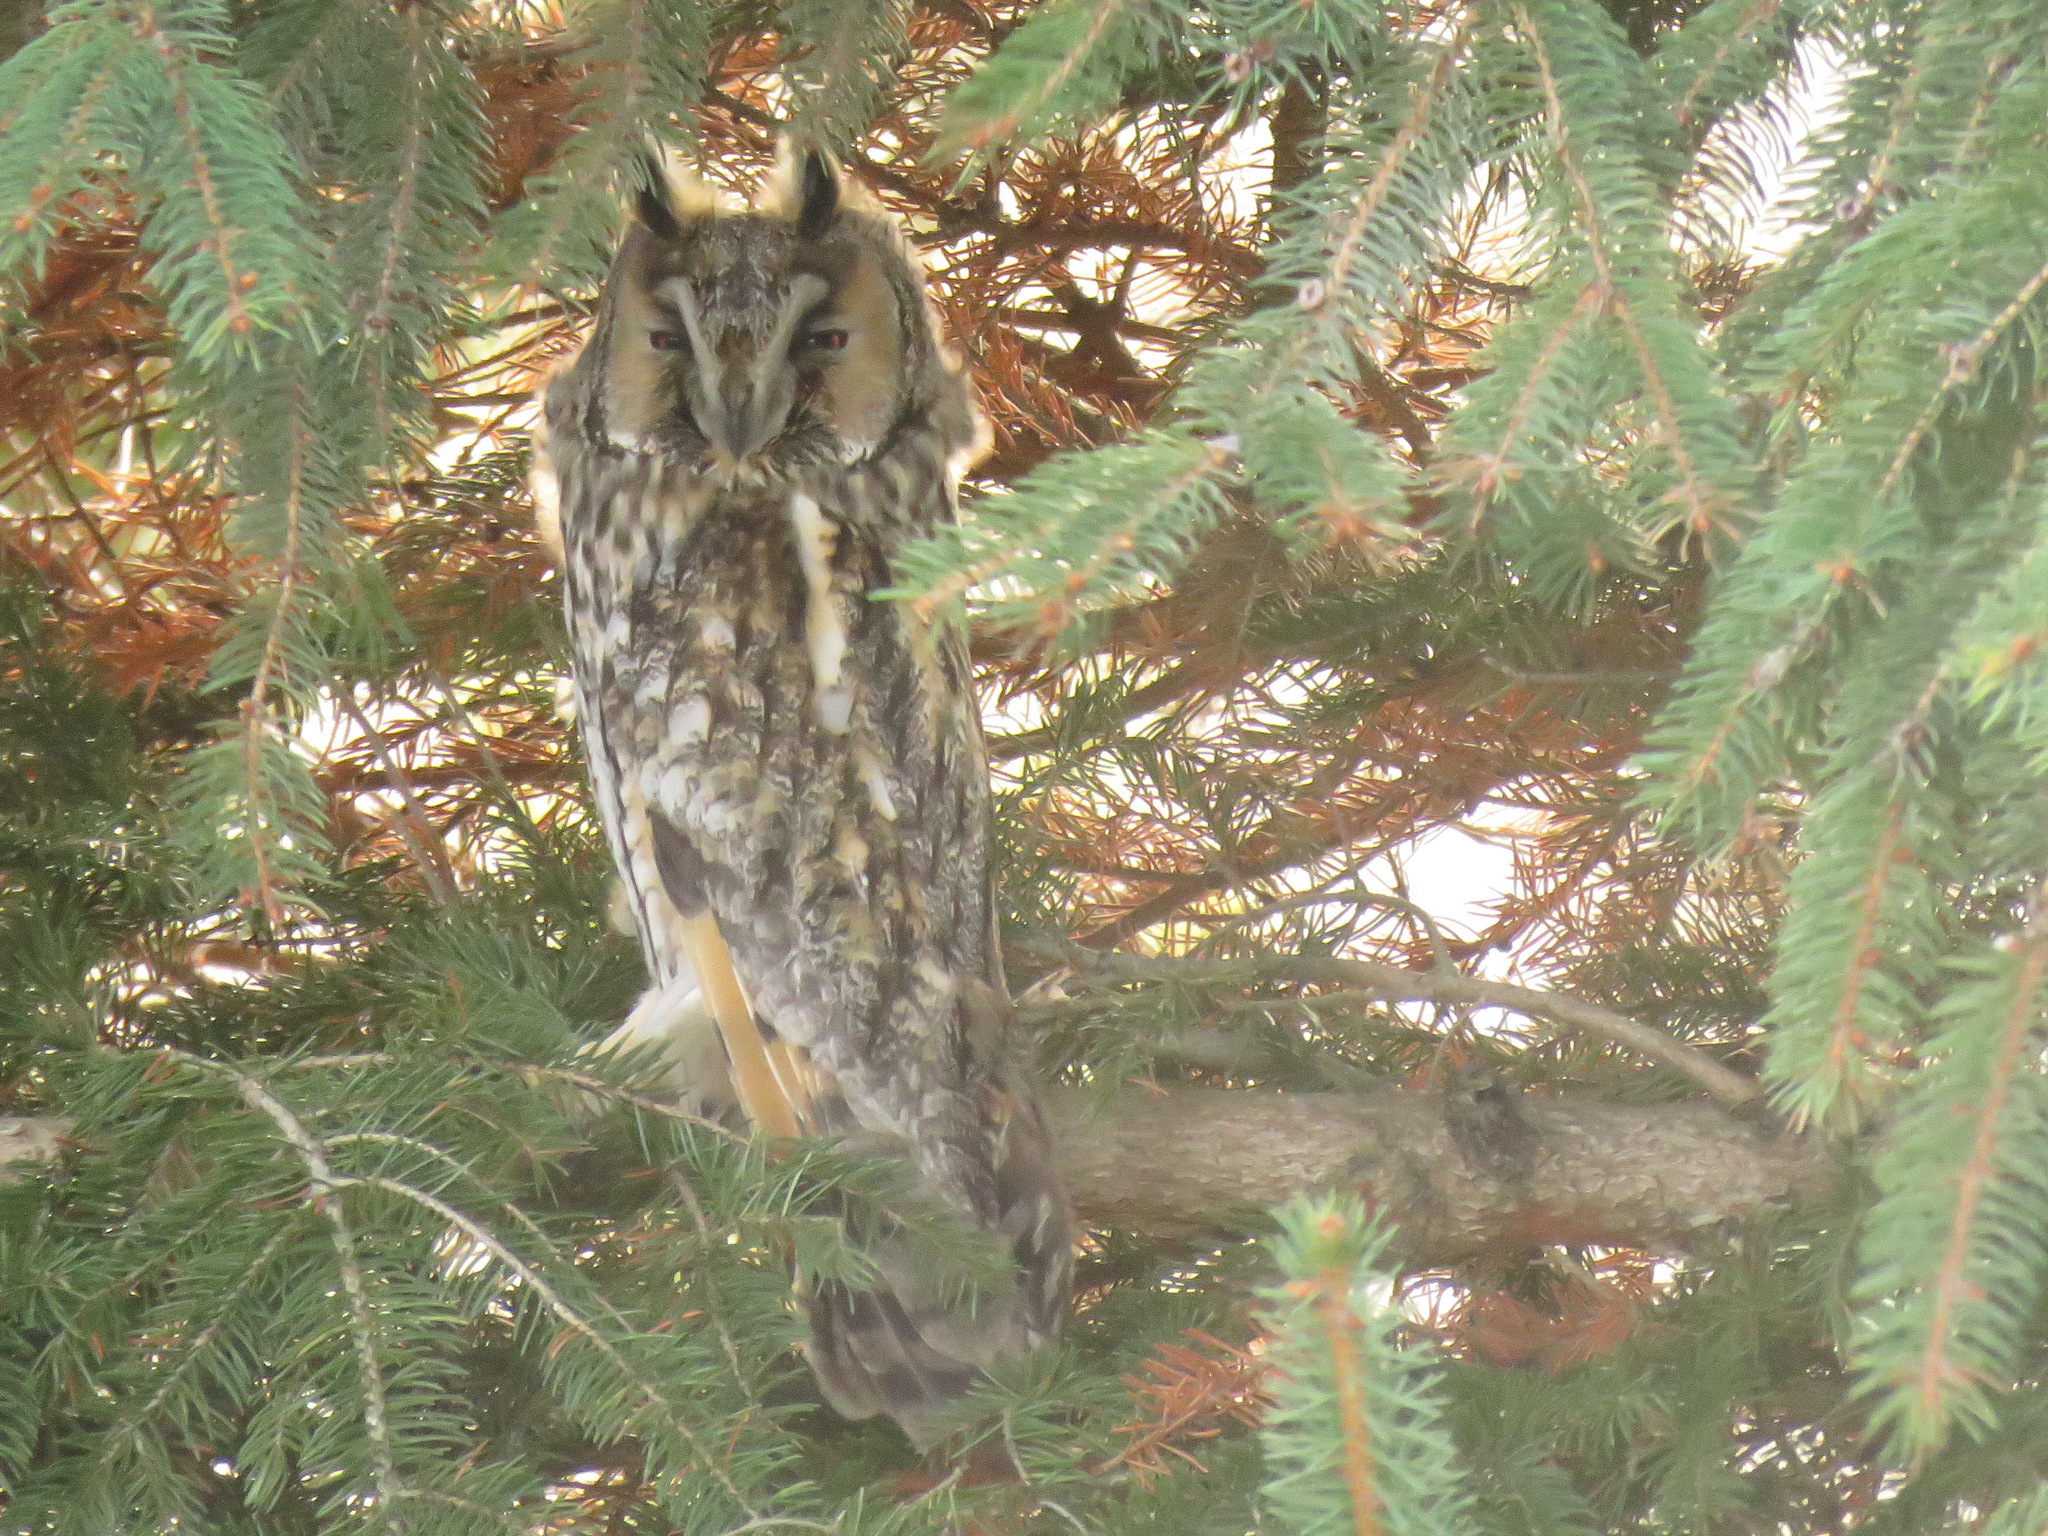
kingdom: Animalia
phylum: Chordata
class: Aves
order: Strigiformes
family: Strigidae
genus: Asio
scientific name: Asio otus
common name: Long-eared owl
